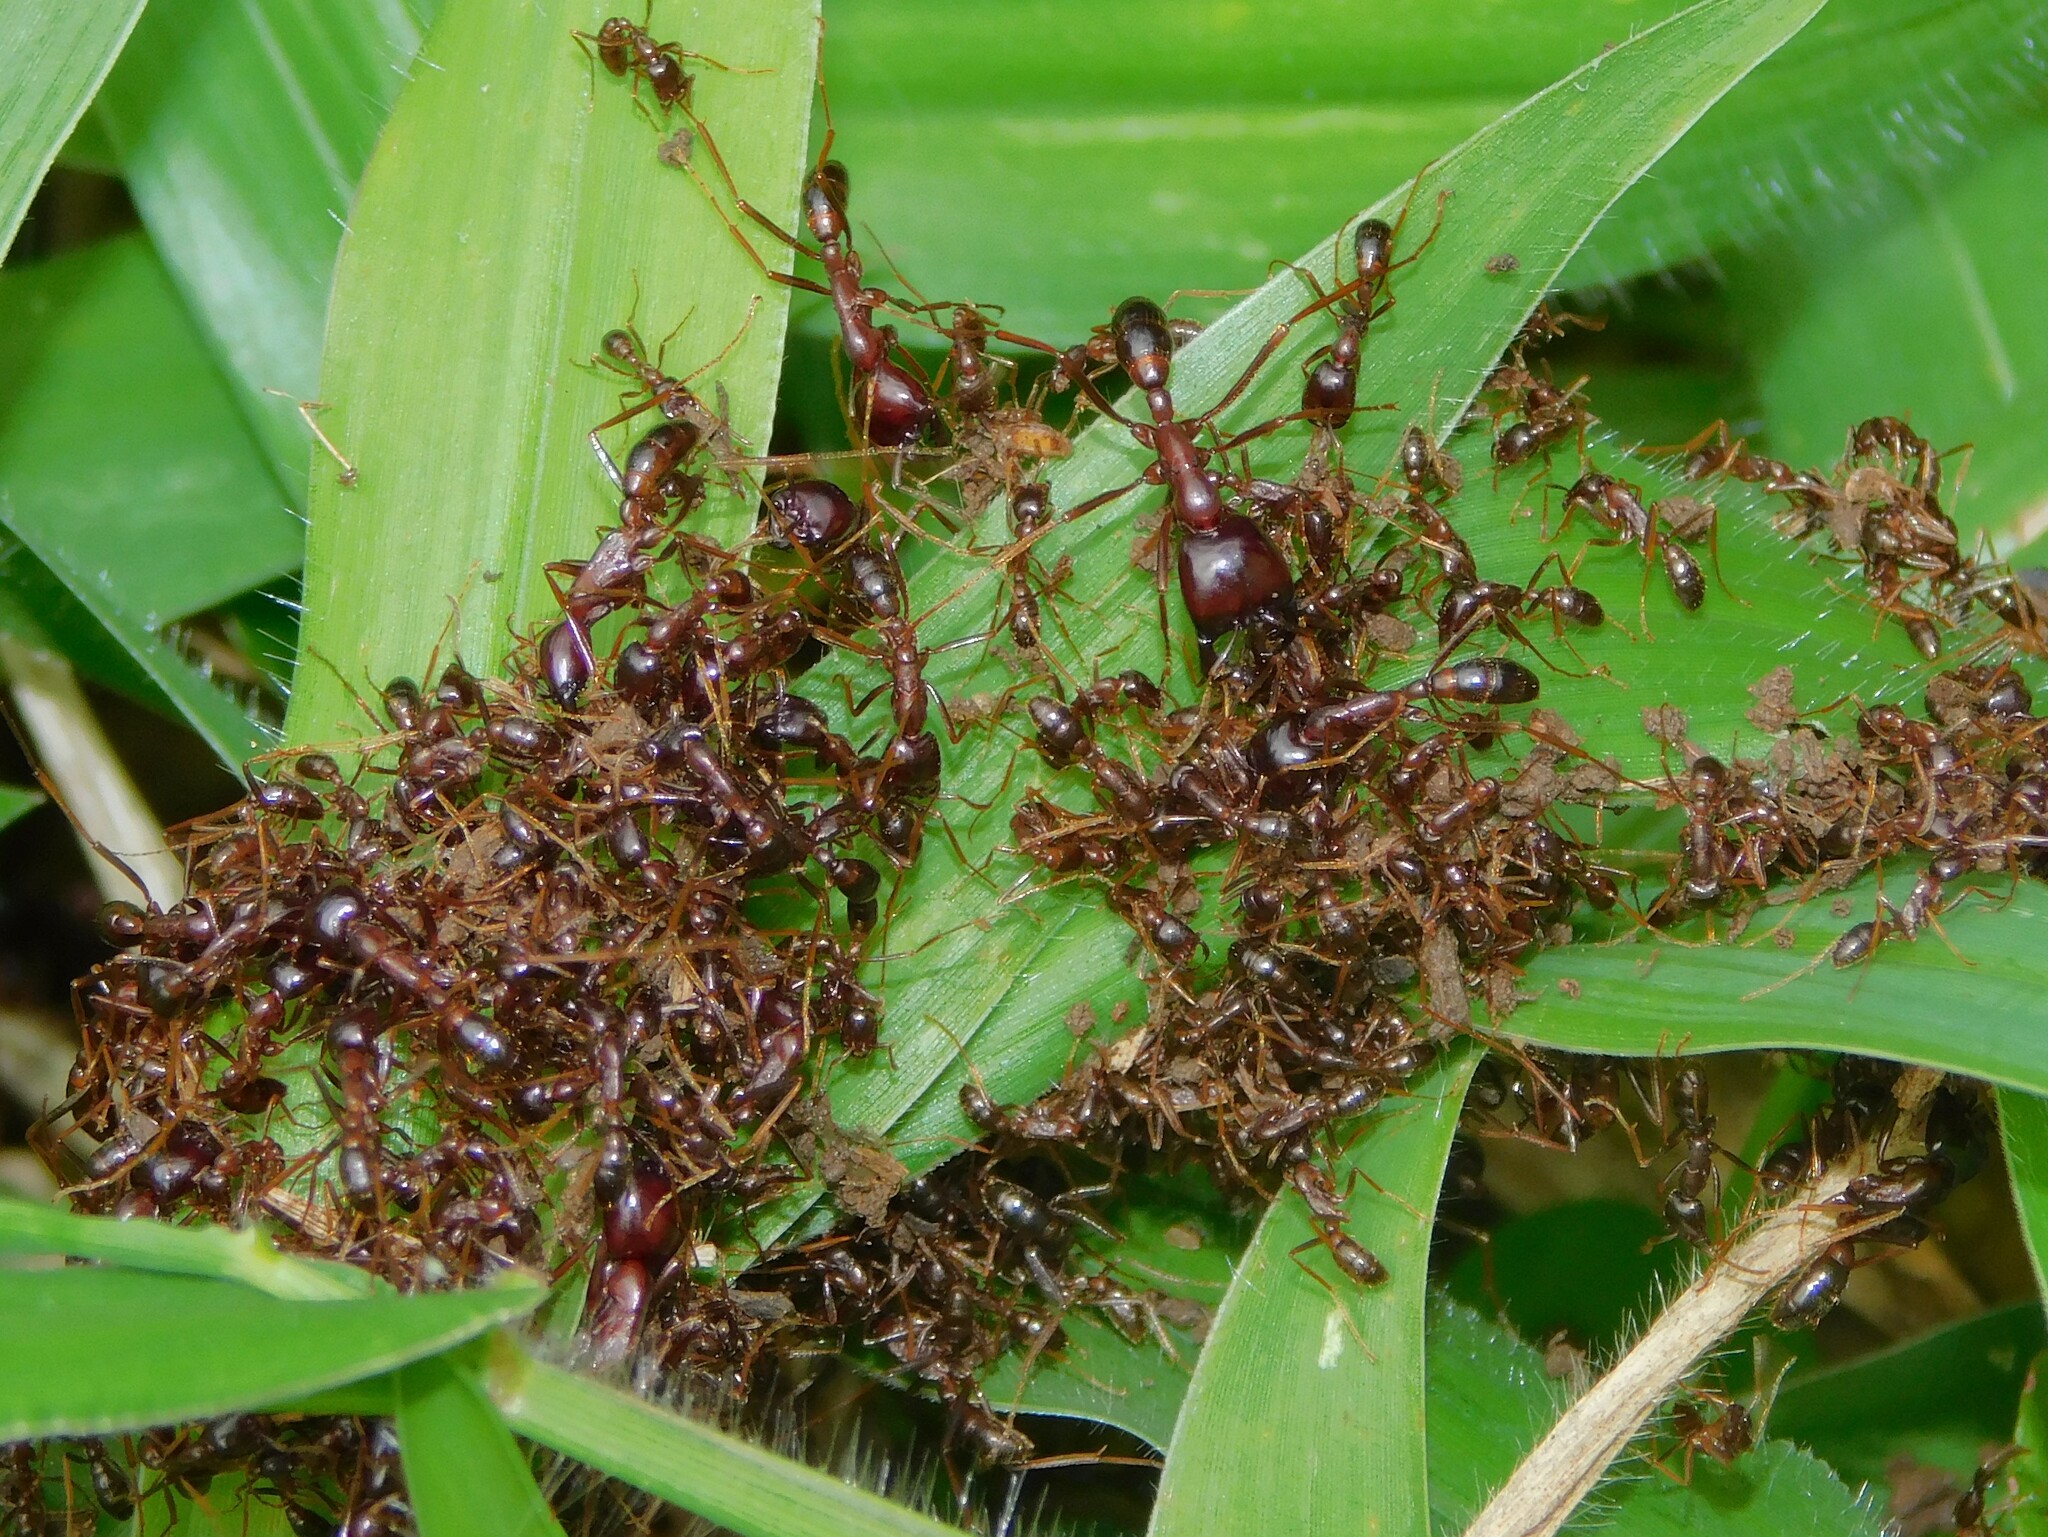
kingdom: Animalia
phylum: Arthropoda
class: Insecta
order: Hymenoptera
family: Formicidae
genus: Dorylus
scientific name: Dorylus
